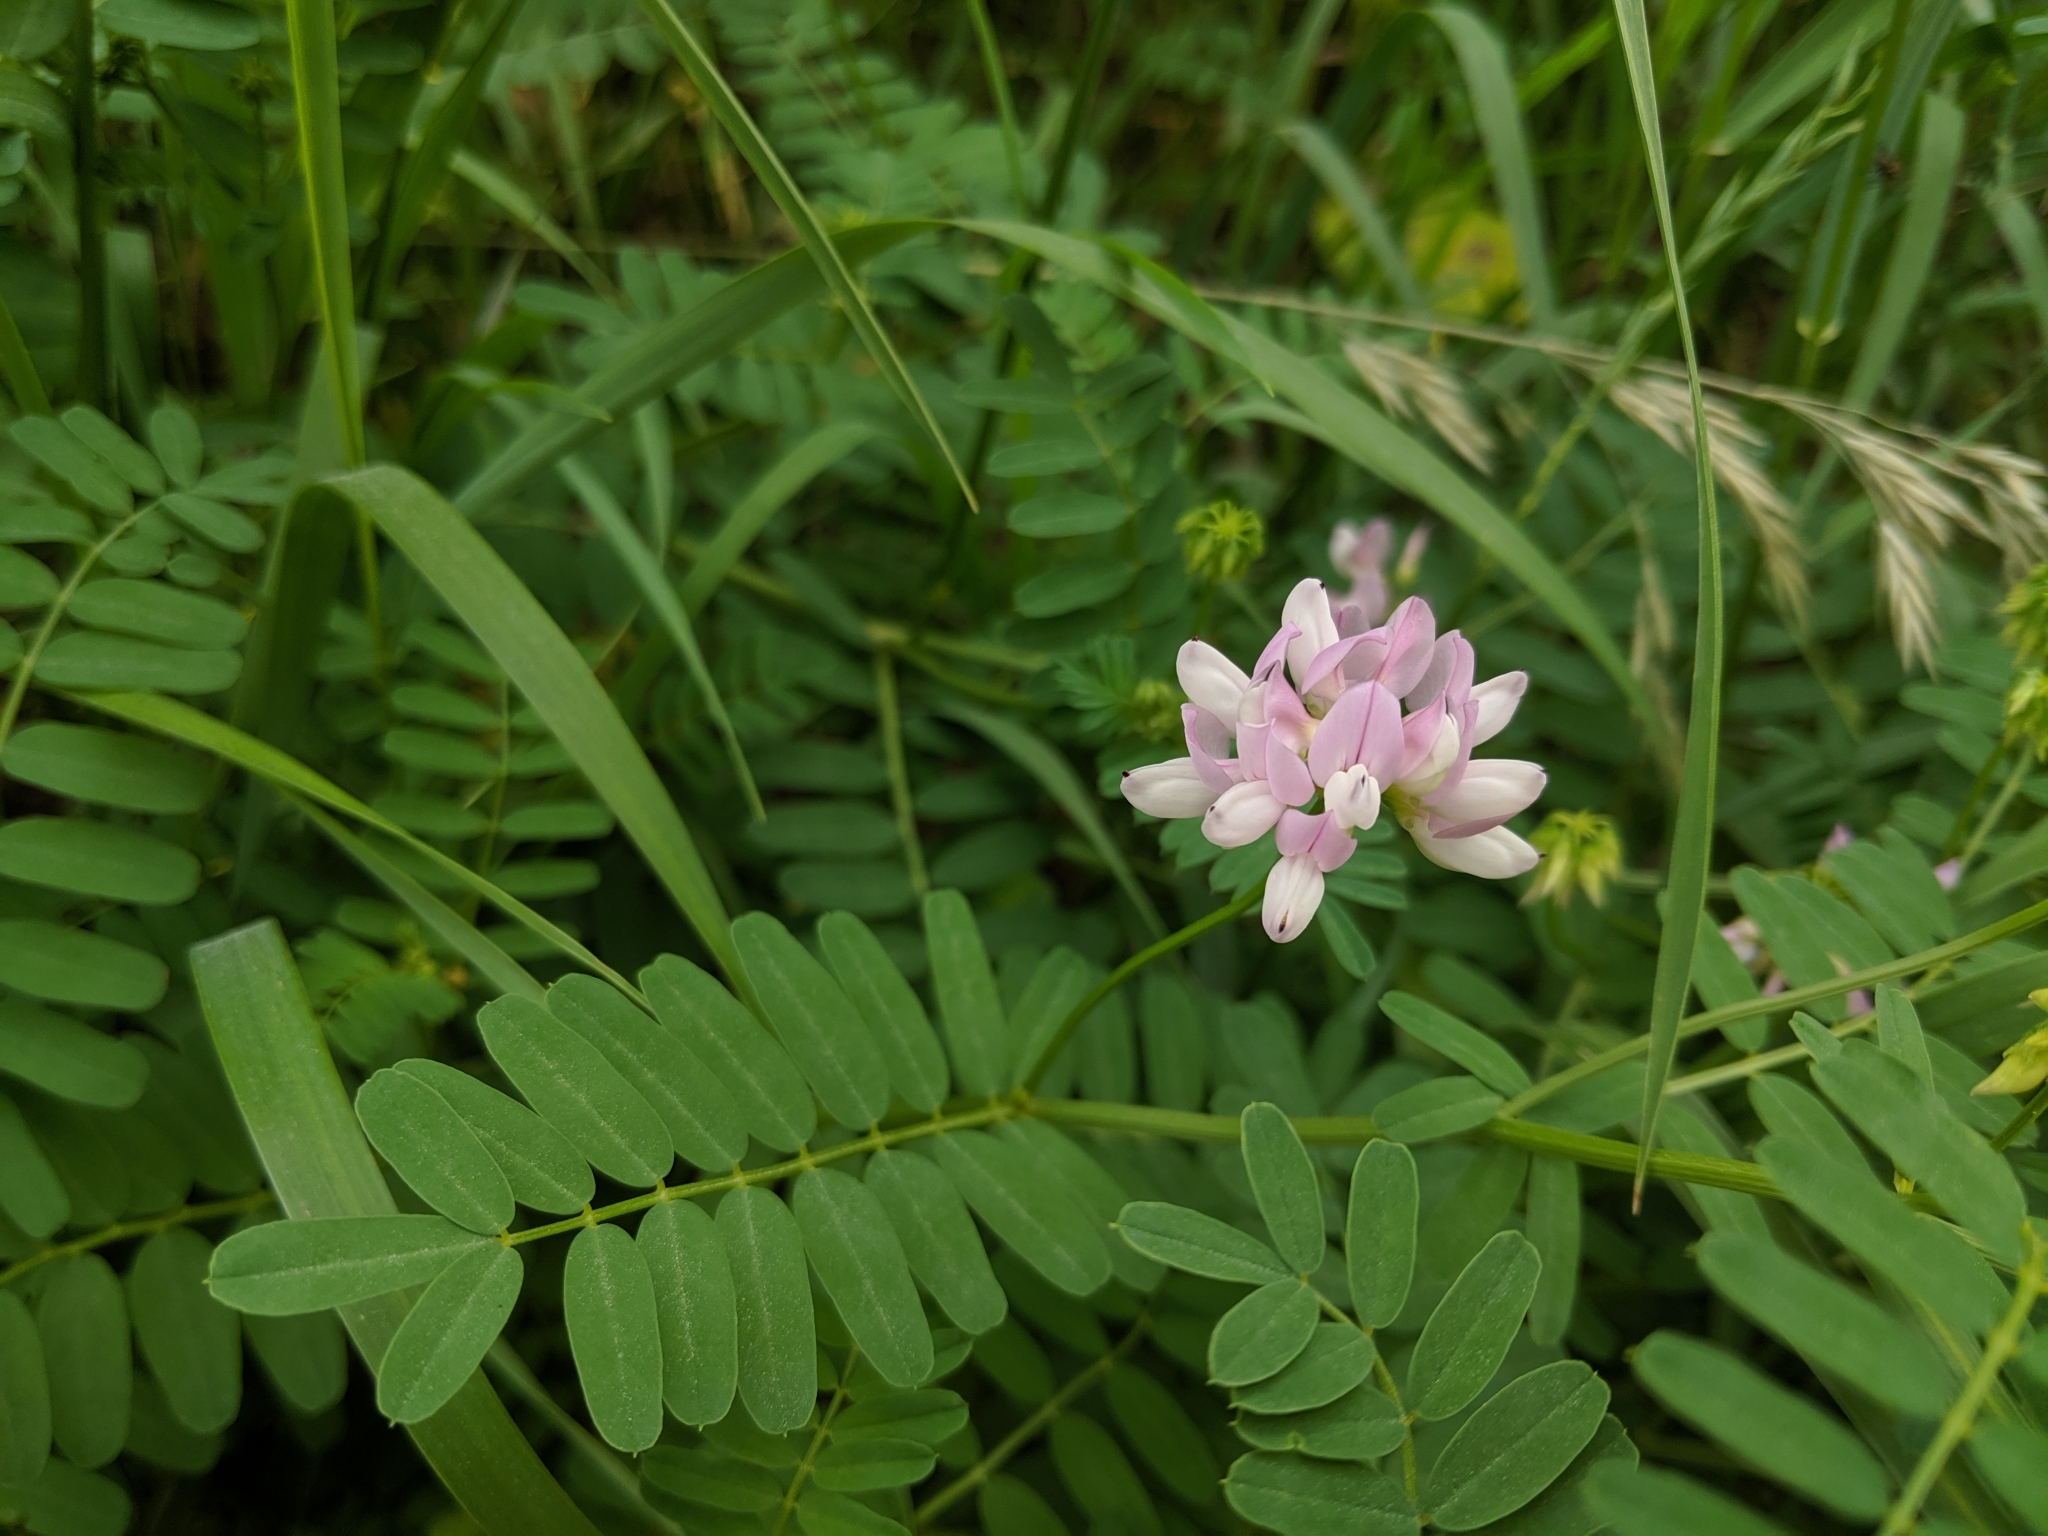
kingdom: Plantae
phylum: Tracheophyta
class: Magnoliopsida
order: Fabales
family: Fabaceae
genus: Coronilla
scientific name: Coronilla varia
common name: Crownvetch
